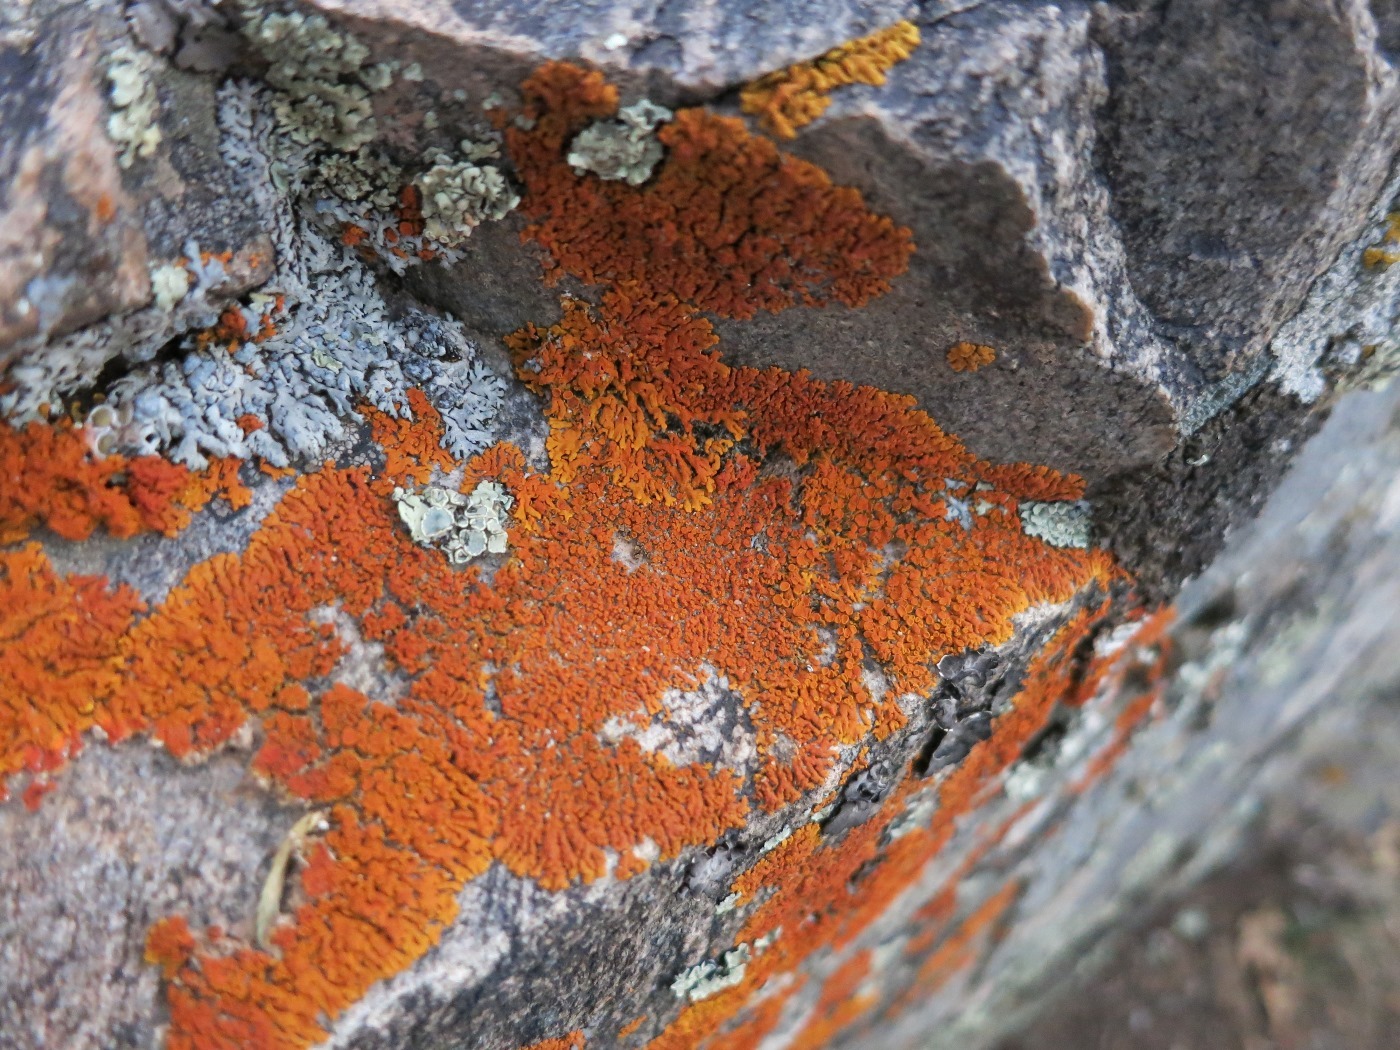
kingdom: Fungi
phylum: Ascomycota
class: Lecanoromycetes
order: Teloschistales
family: Teloschistaceae
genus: Xanthoria
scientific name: Xanthoria elegans
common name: Elegant sunburst lichen
